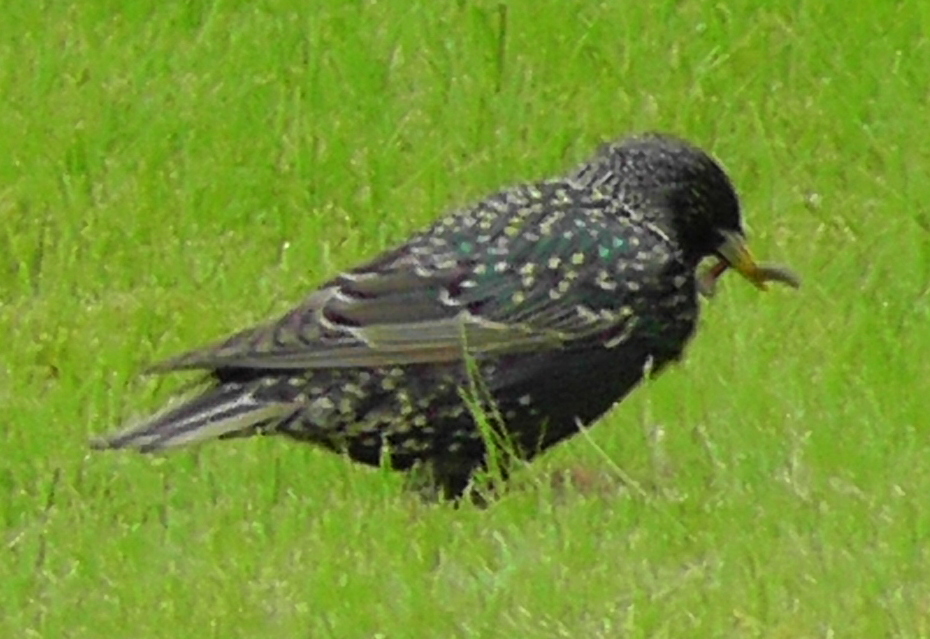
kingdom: Animalia
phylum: Chordata
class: Aves
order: Passeriformes
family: Sturnidae
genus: Sturnus
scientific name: Sturnus vulgaris
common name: Common starling
